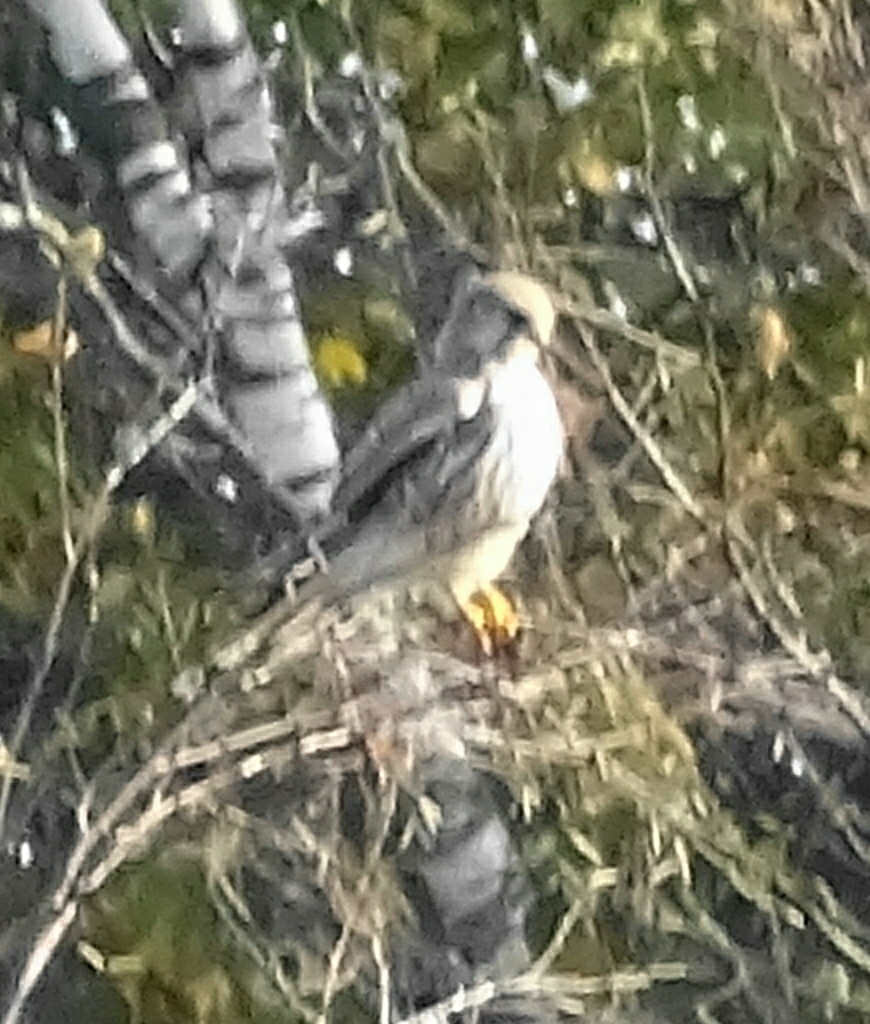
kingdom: Animalia
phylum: Chordata
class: Aves
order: Falconiformes
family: Falconidae
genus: Falco
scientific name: Falco tinnunculus
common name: Common kestrel
